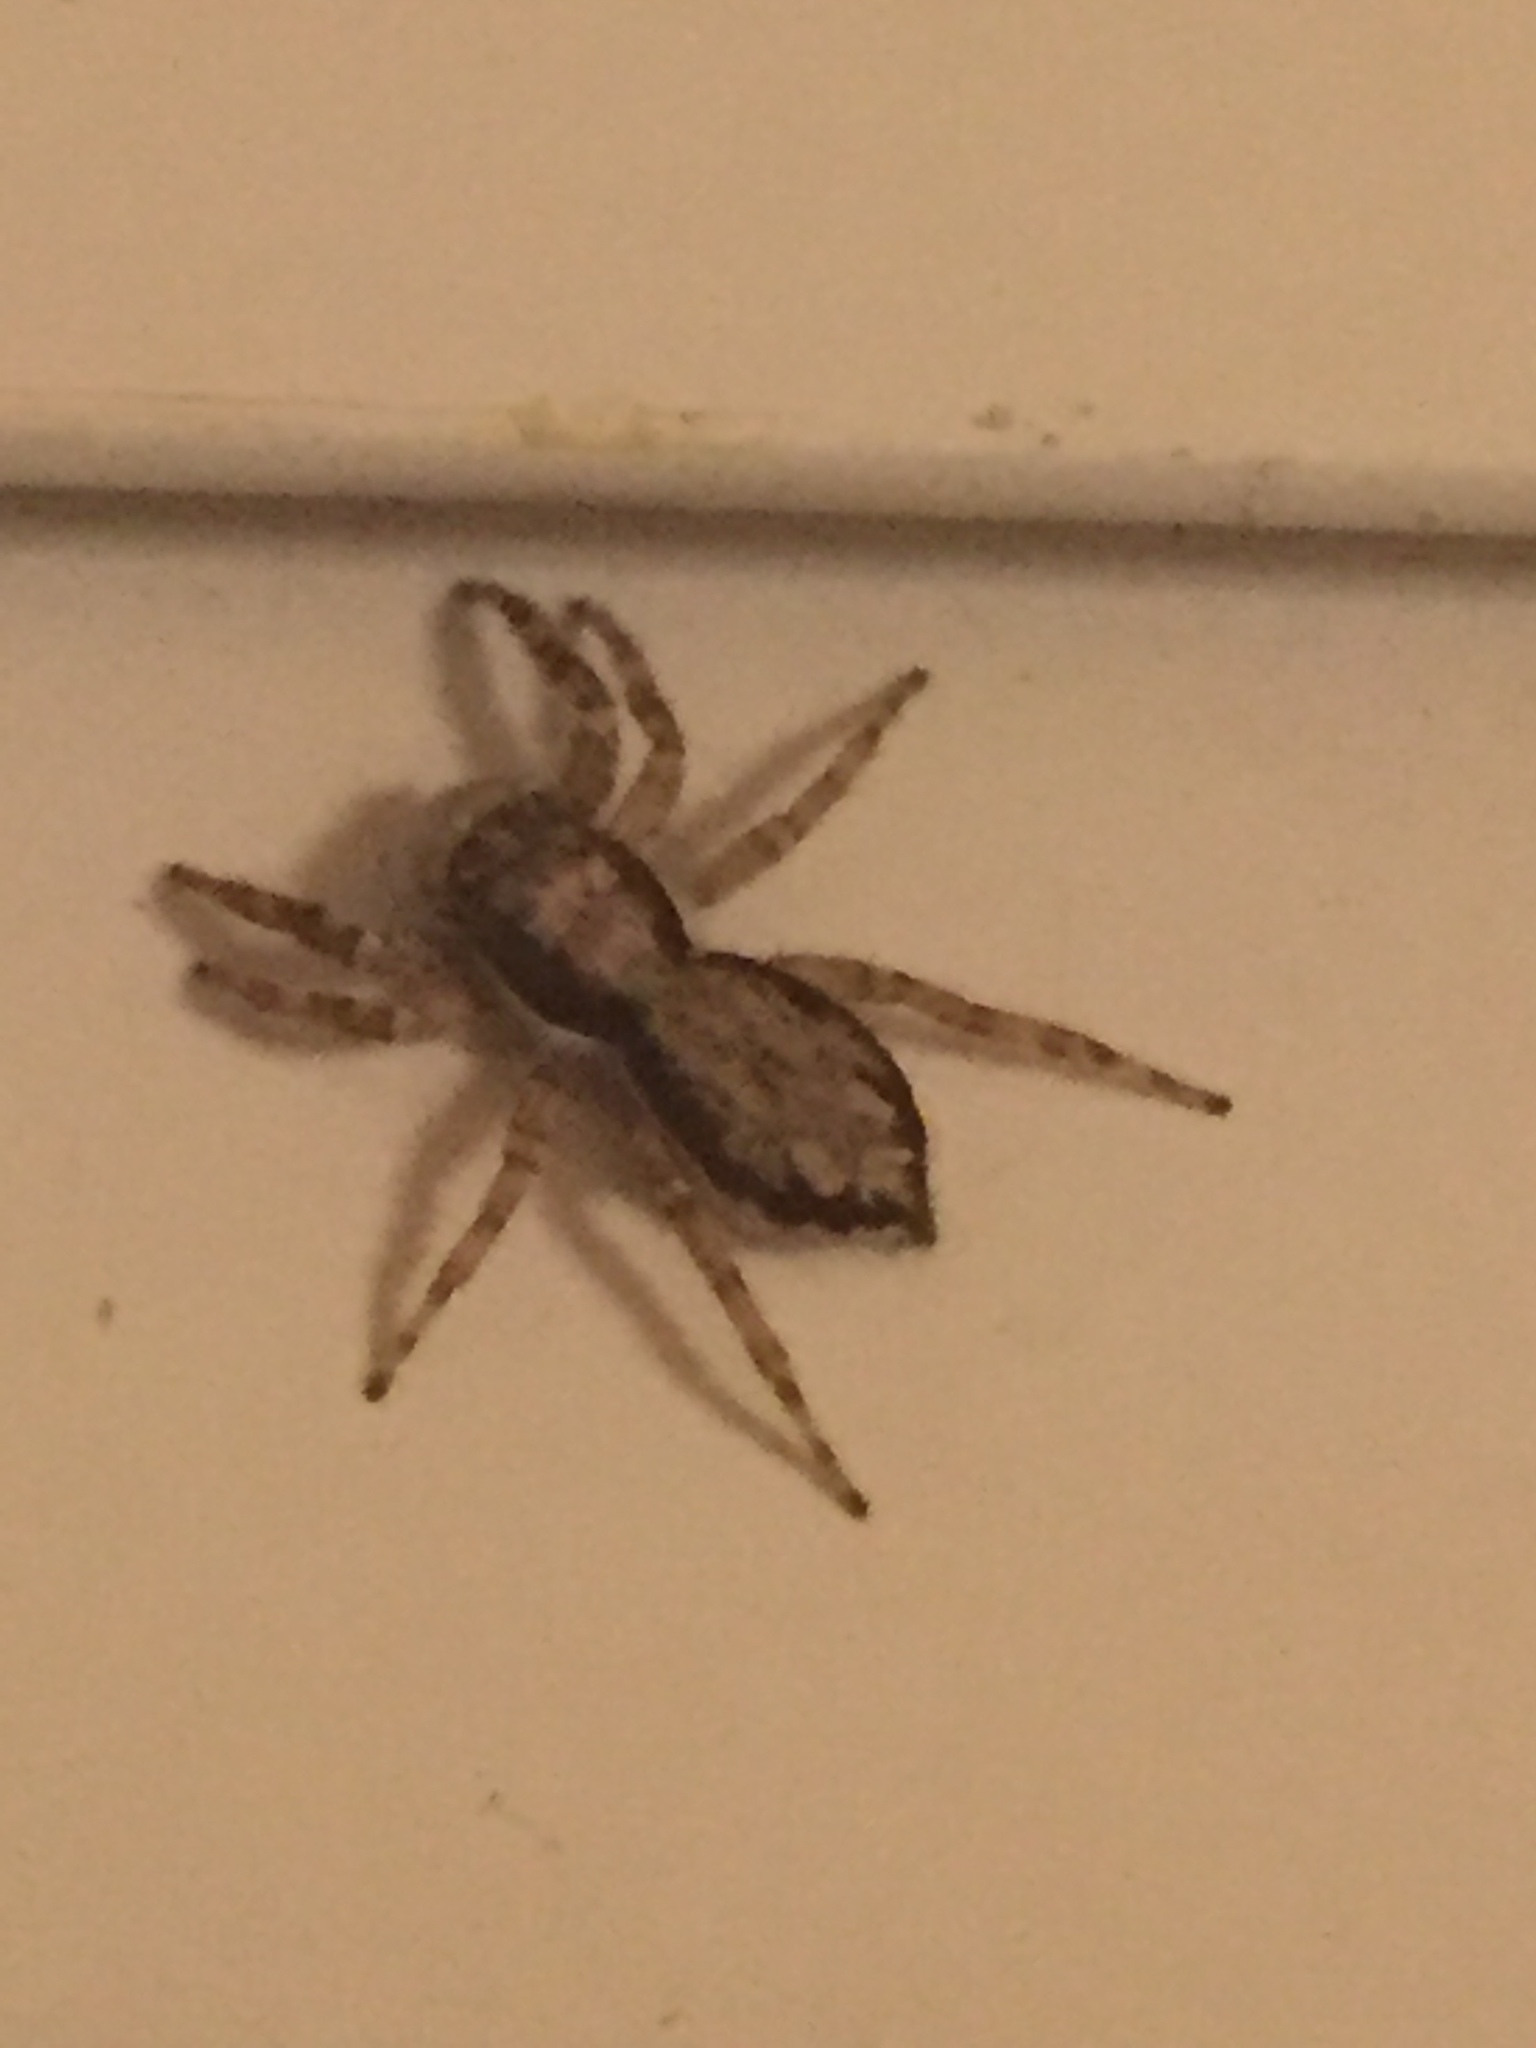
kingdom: Animalia
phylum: Arthropoda
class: Arachnida
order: Araneae
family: Salticidae
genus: Menemerus
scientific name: Menemerus bivittatus
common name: Gray wall jumper
